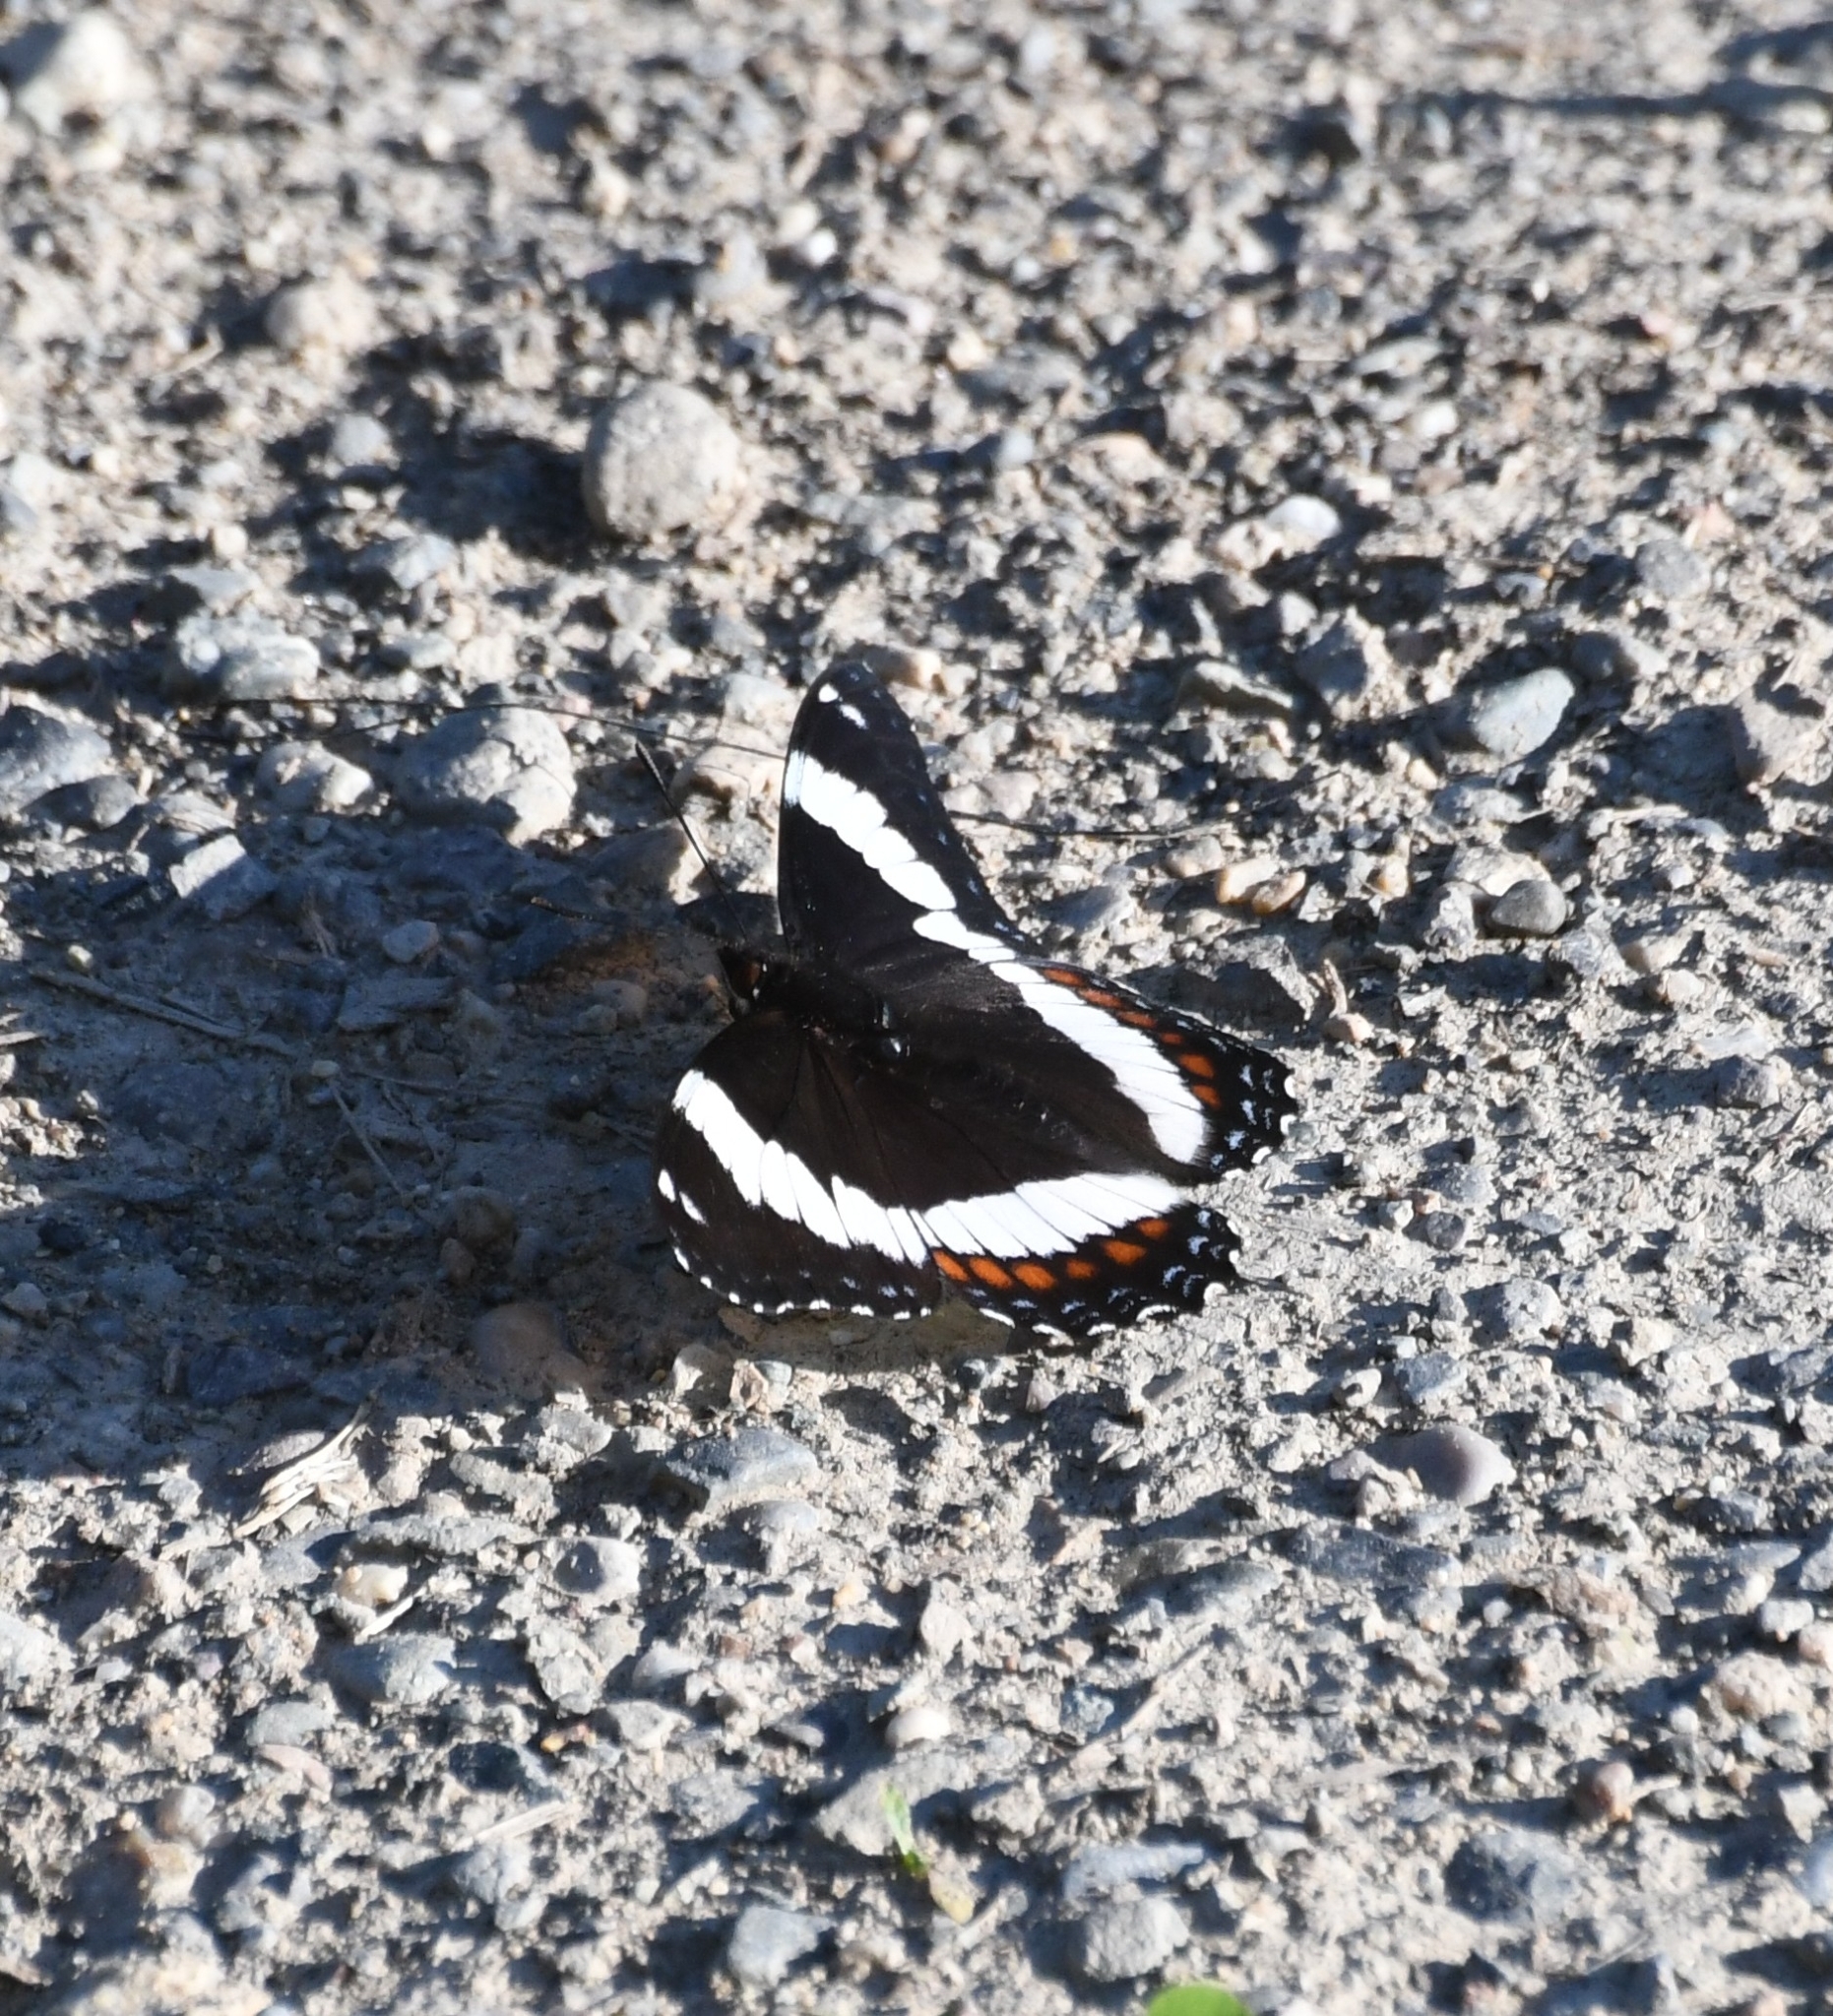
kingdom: Animalia
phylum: Arthropoda
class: Insecta
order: Lepidoptera
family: Nymphalidae
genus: Limenitis
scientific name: Limenitis arthemis
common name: Red-spotted admiral
